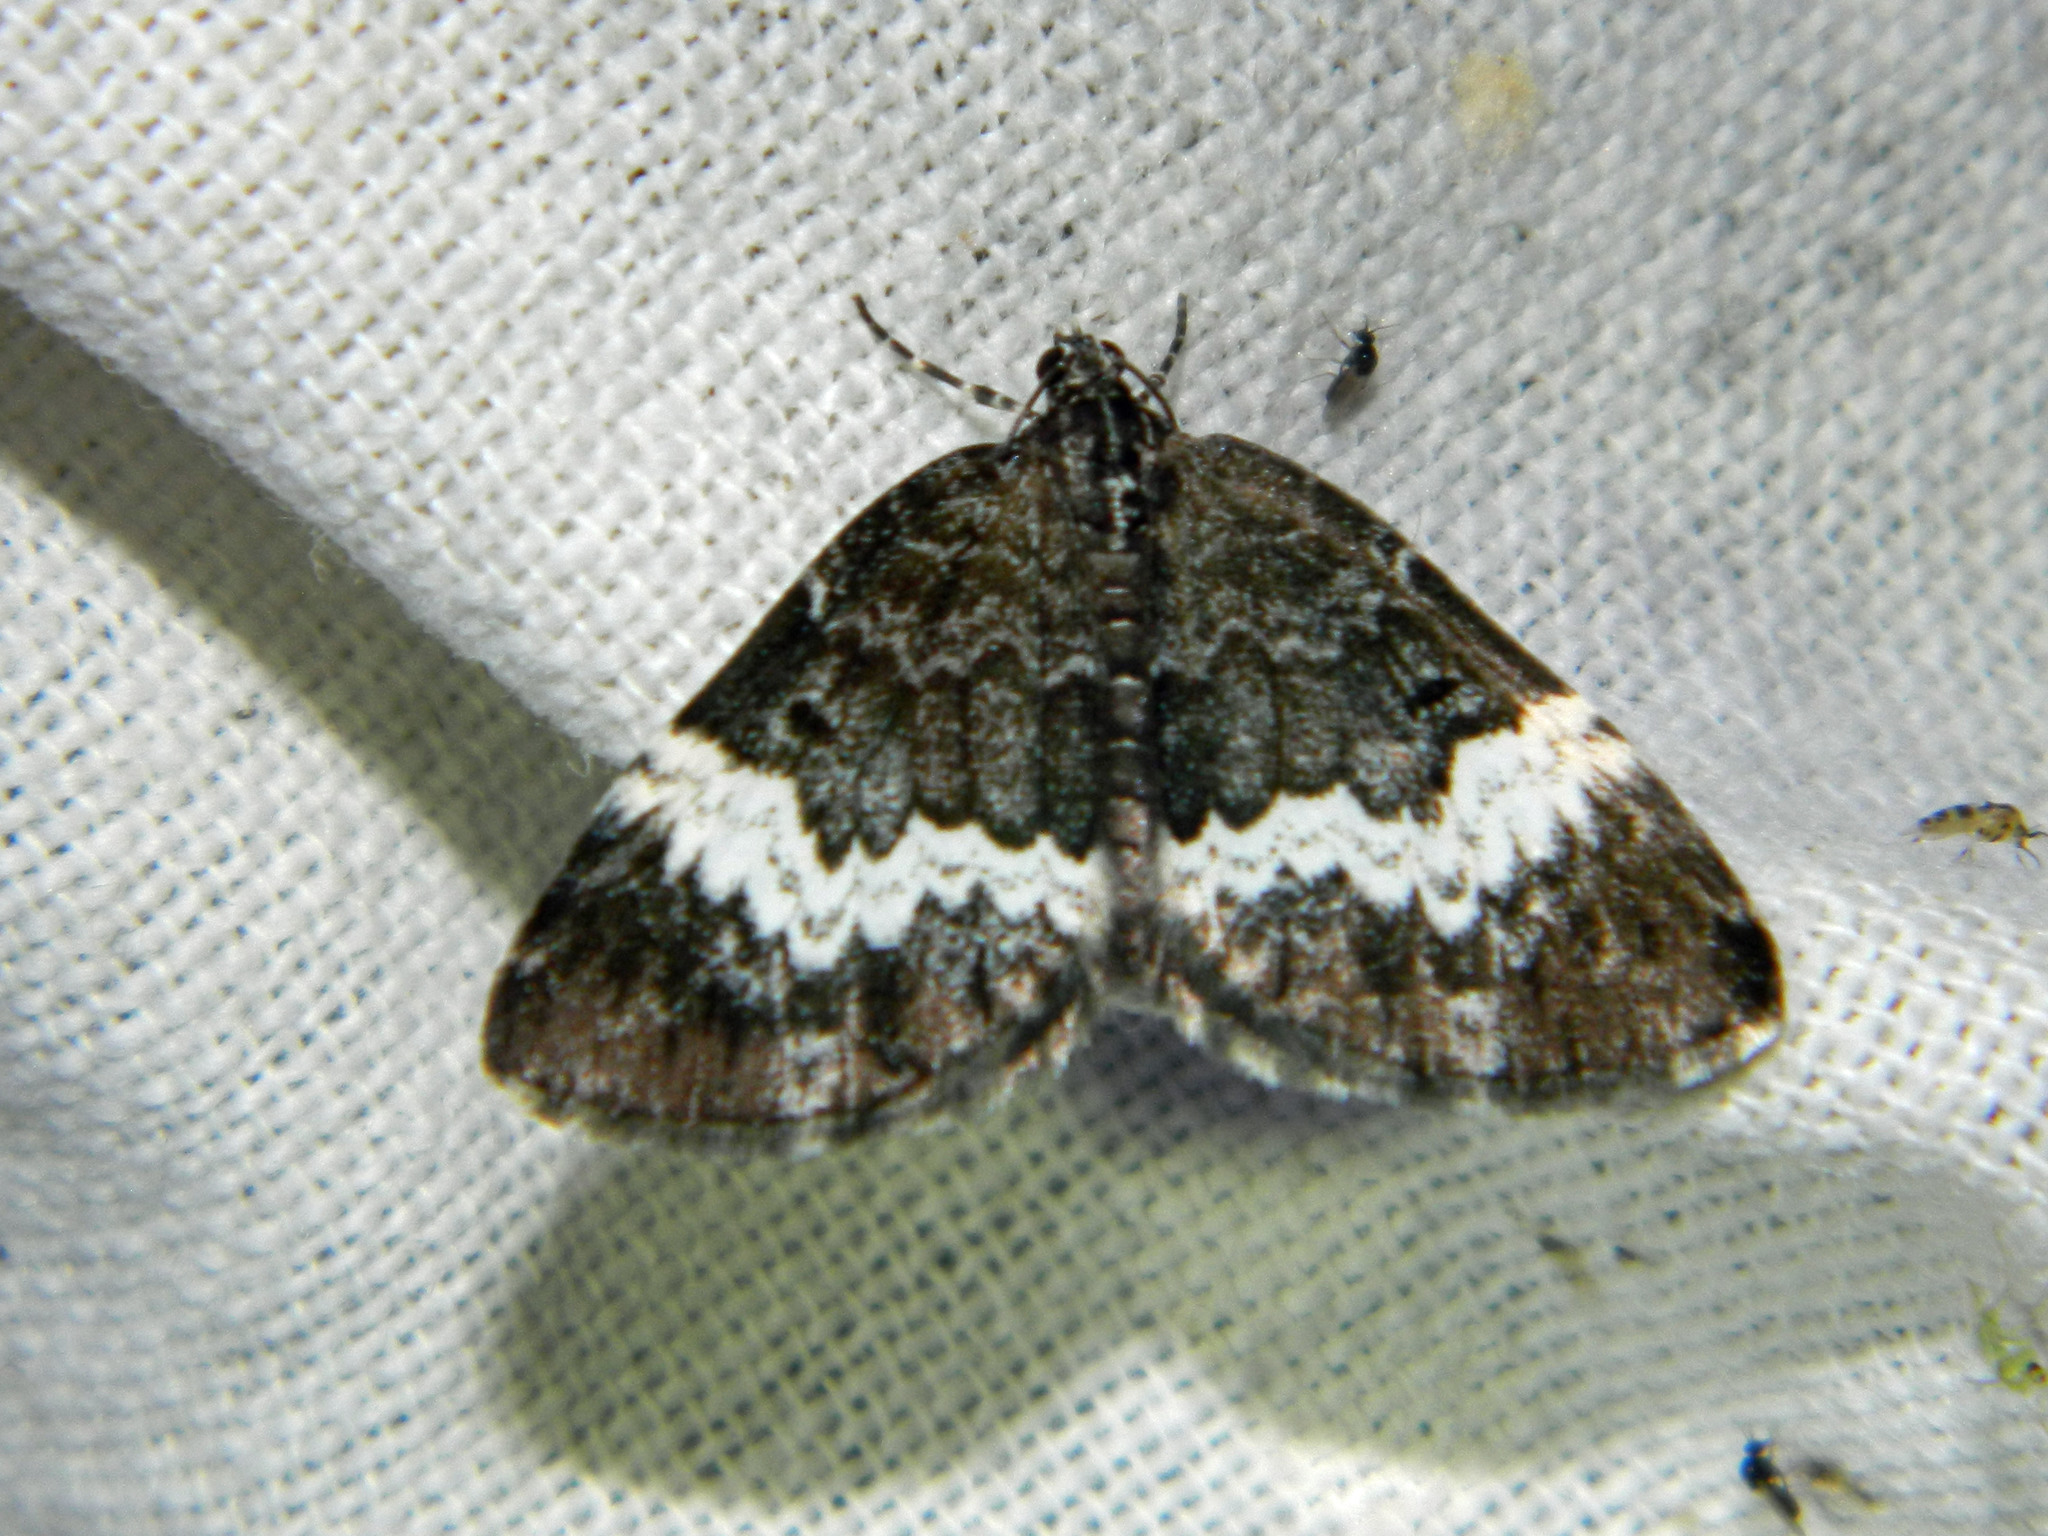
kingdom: Animalia
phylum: Arthropoda
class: Insecta
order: Lepidoptera
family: Geometridae
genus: Spargania
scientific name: Spargania luctuata
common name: White-banded carpet
